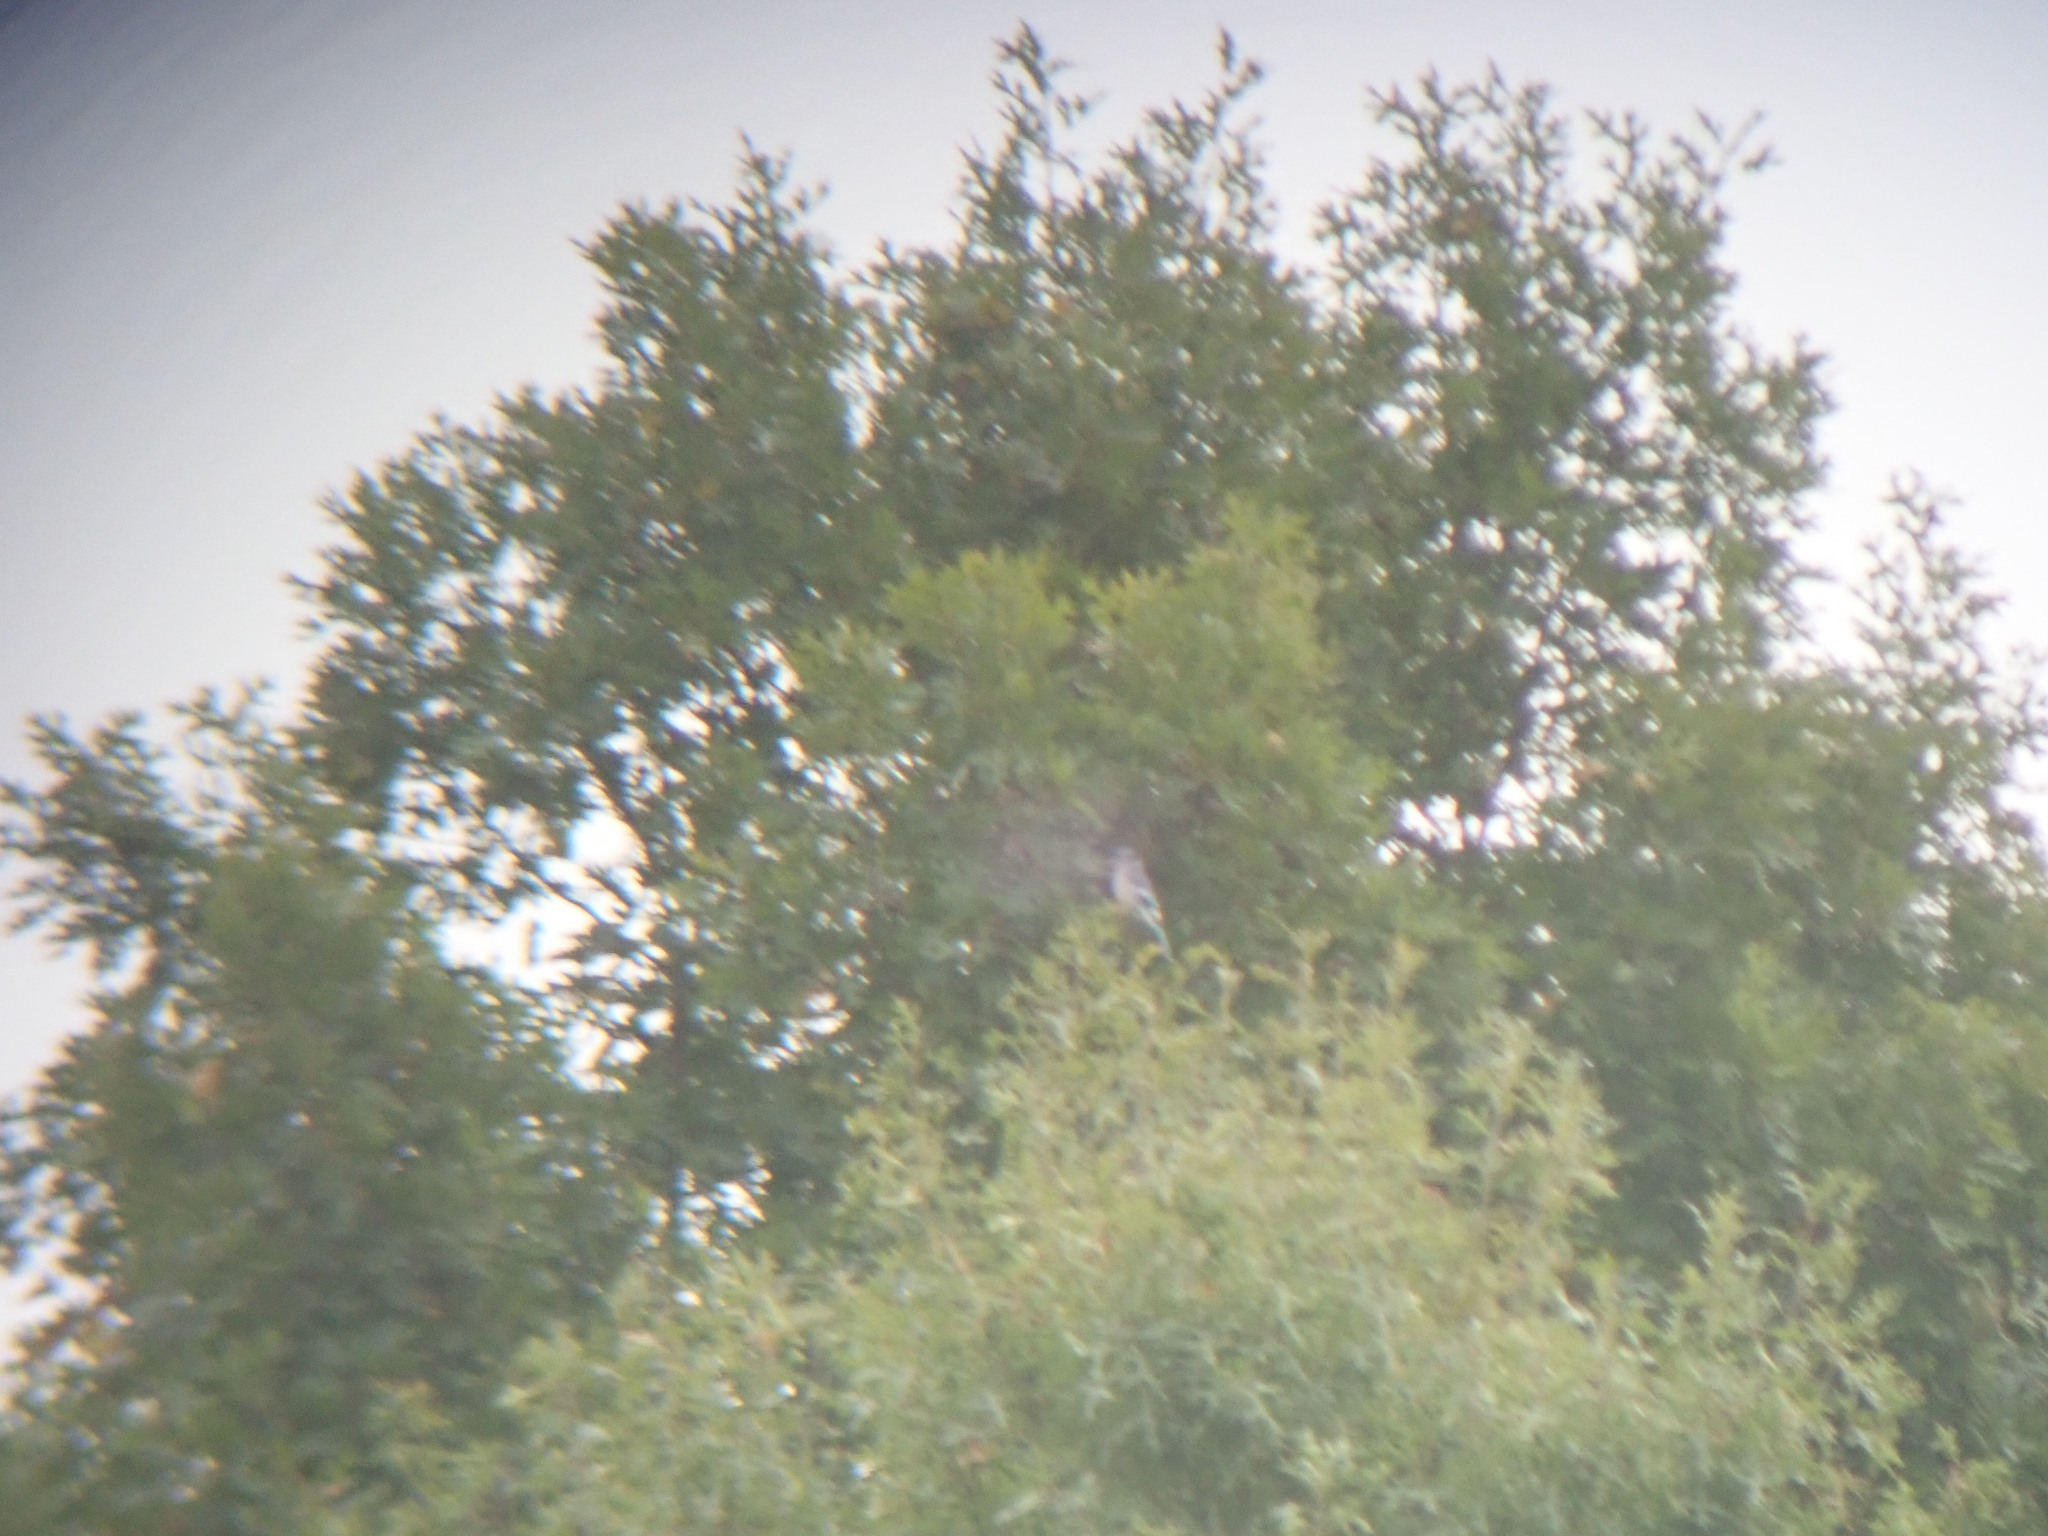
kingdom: Animalia
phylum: Chordata
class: Aves
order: Passeriformes
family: Corvidae
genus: Cyanocitta
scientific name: Cyanocitta cristata
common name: Blue jay
